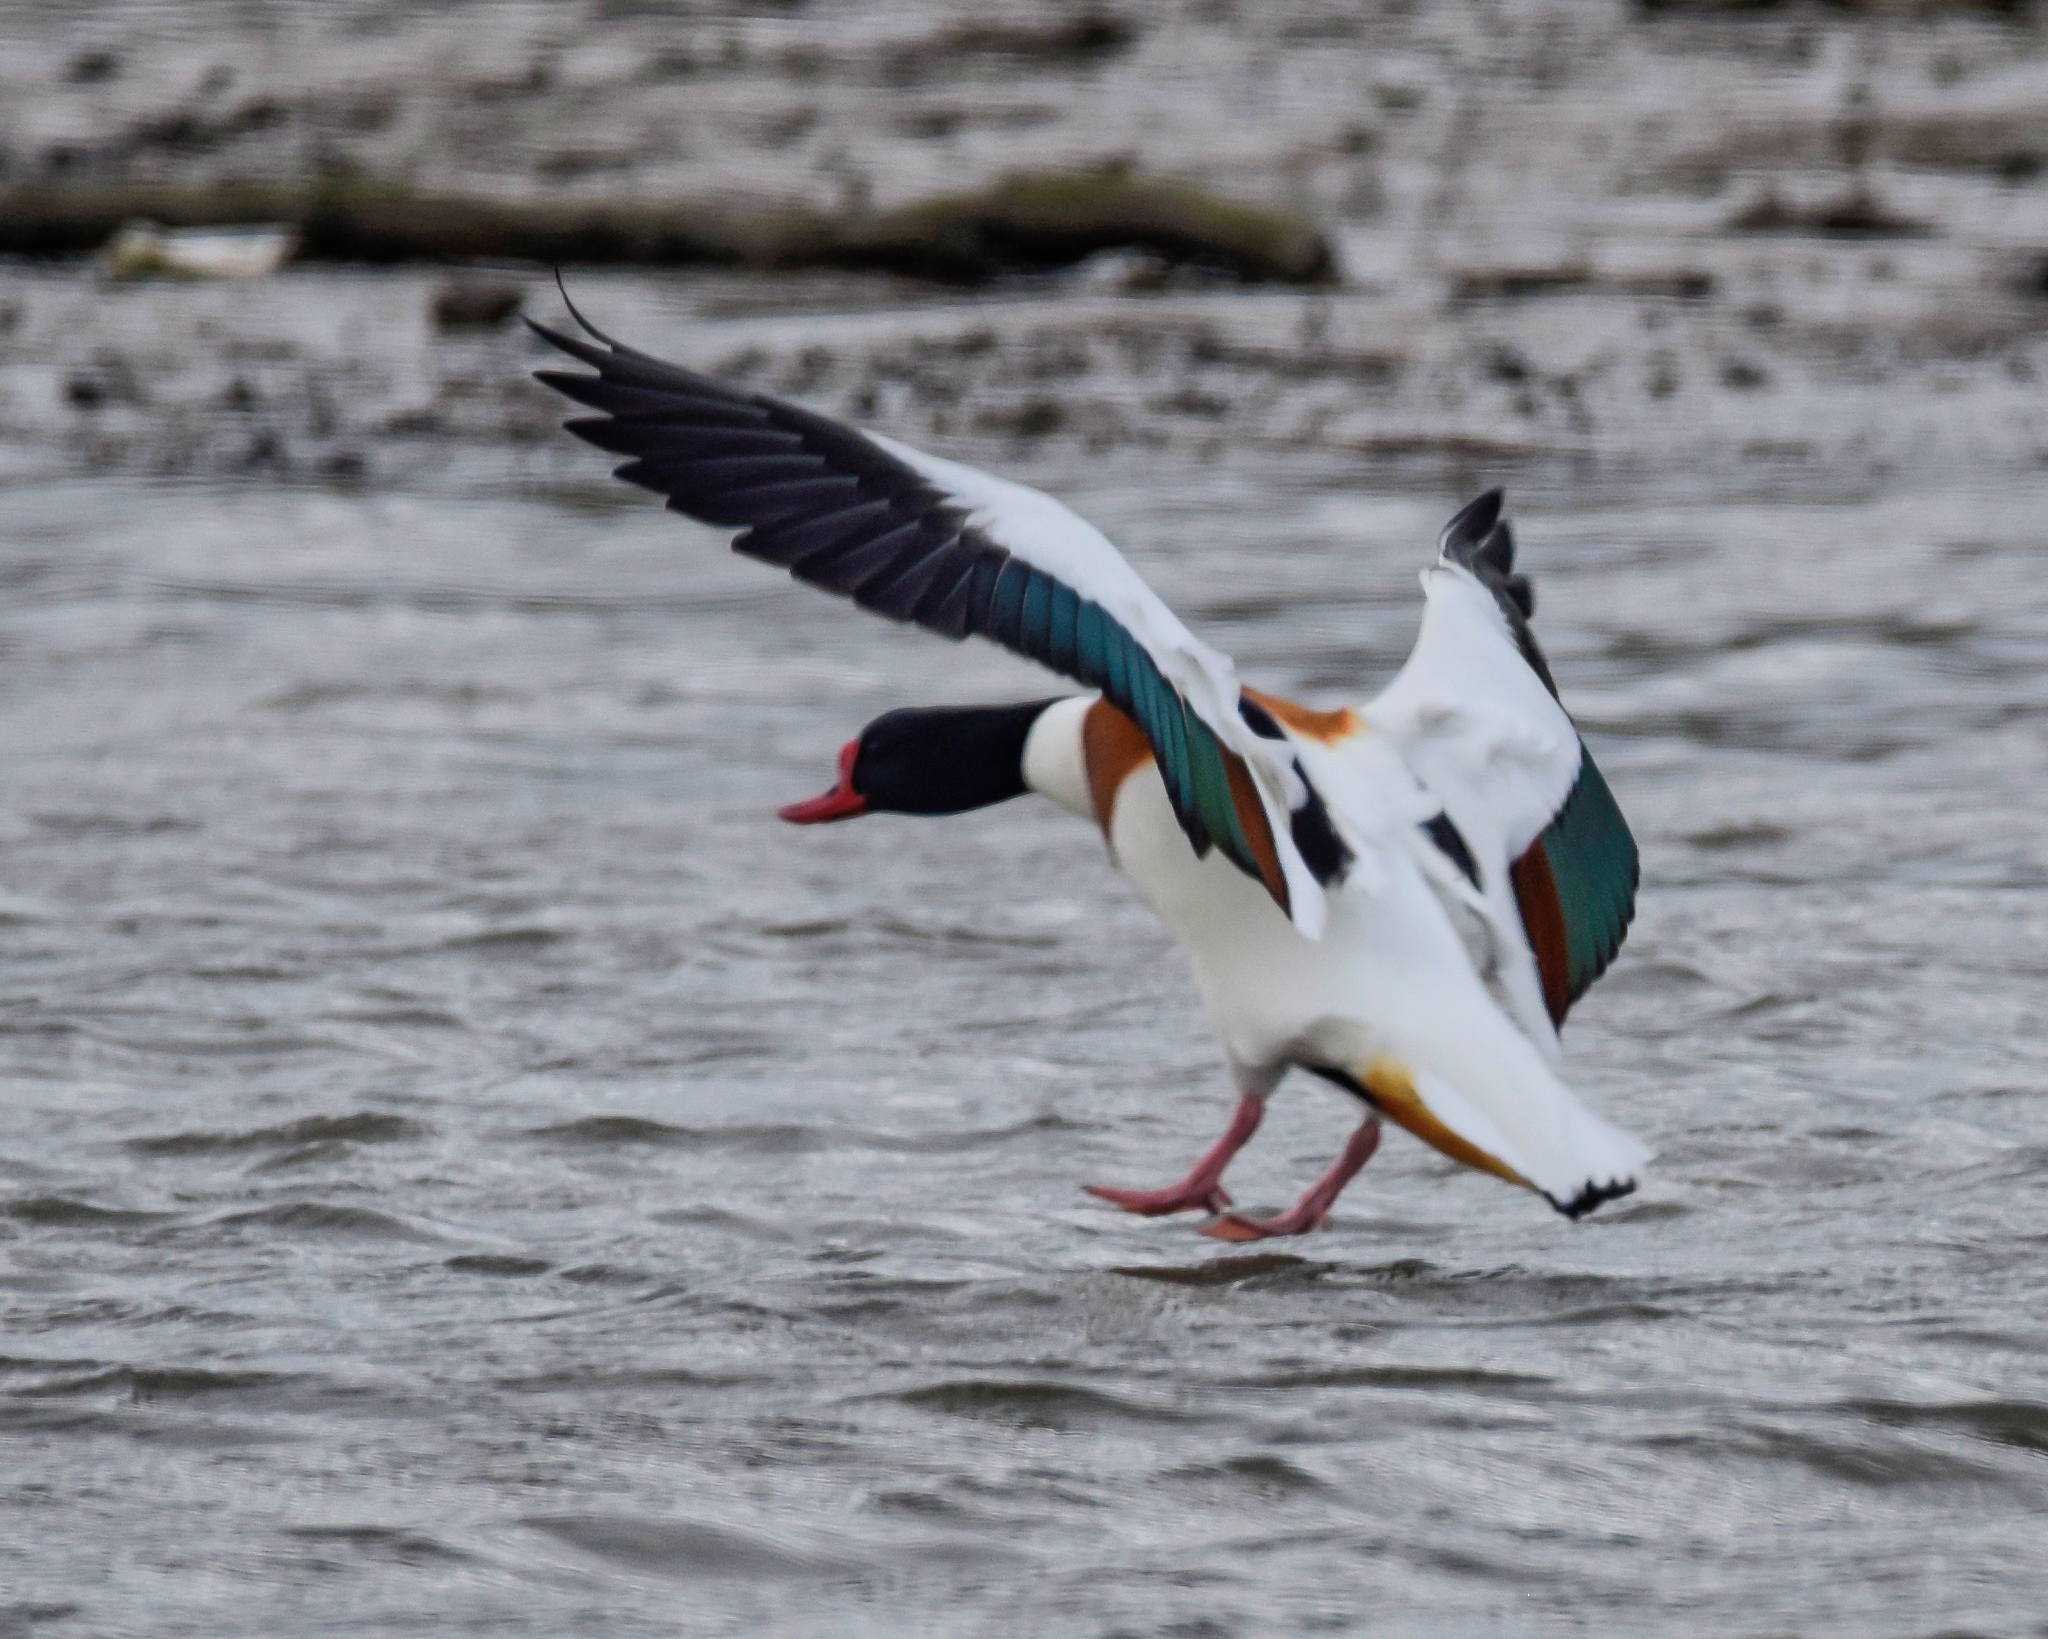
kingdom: Animalia
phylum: Chordata
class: Aves
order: Anseriformes
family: Anatidae
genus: Tadorna
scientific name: Tadorna tadorna
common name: Common shelduck
